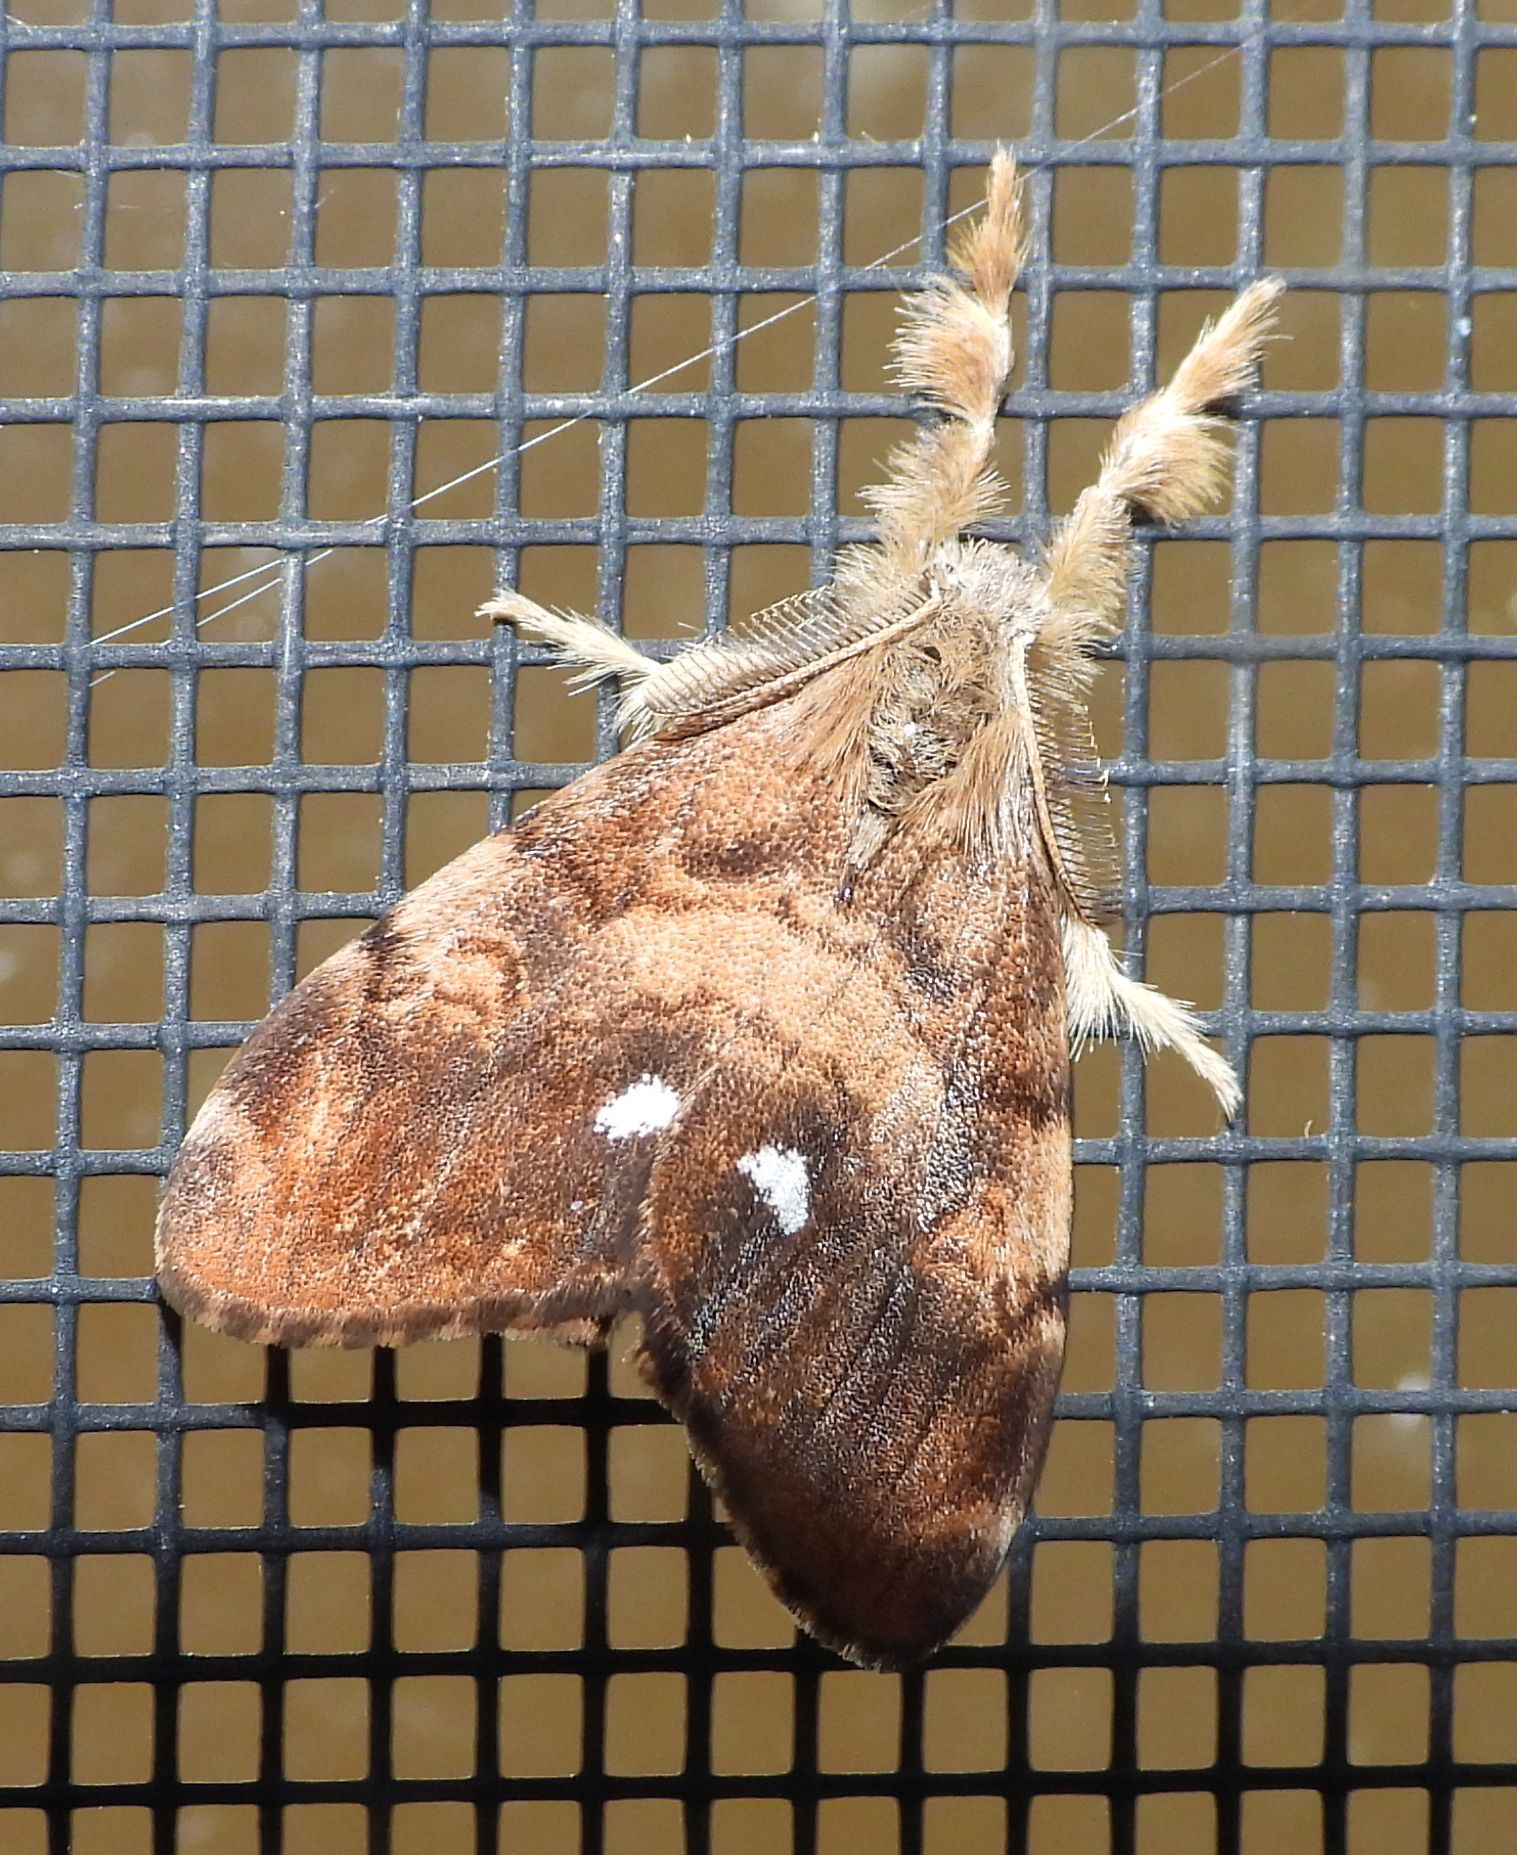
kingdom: Animalia
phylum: Arthropoda
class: Insecta
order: Lepidoptera
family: Erebidae
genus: Orgyia
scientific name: Orgyia antiqua
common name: Vapourer
